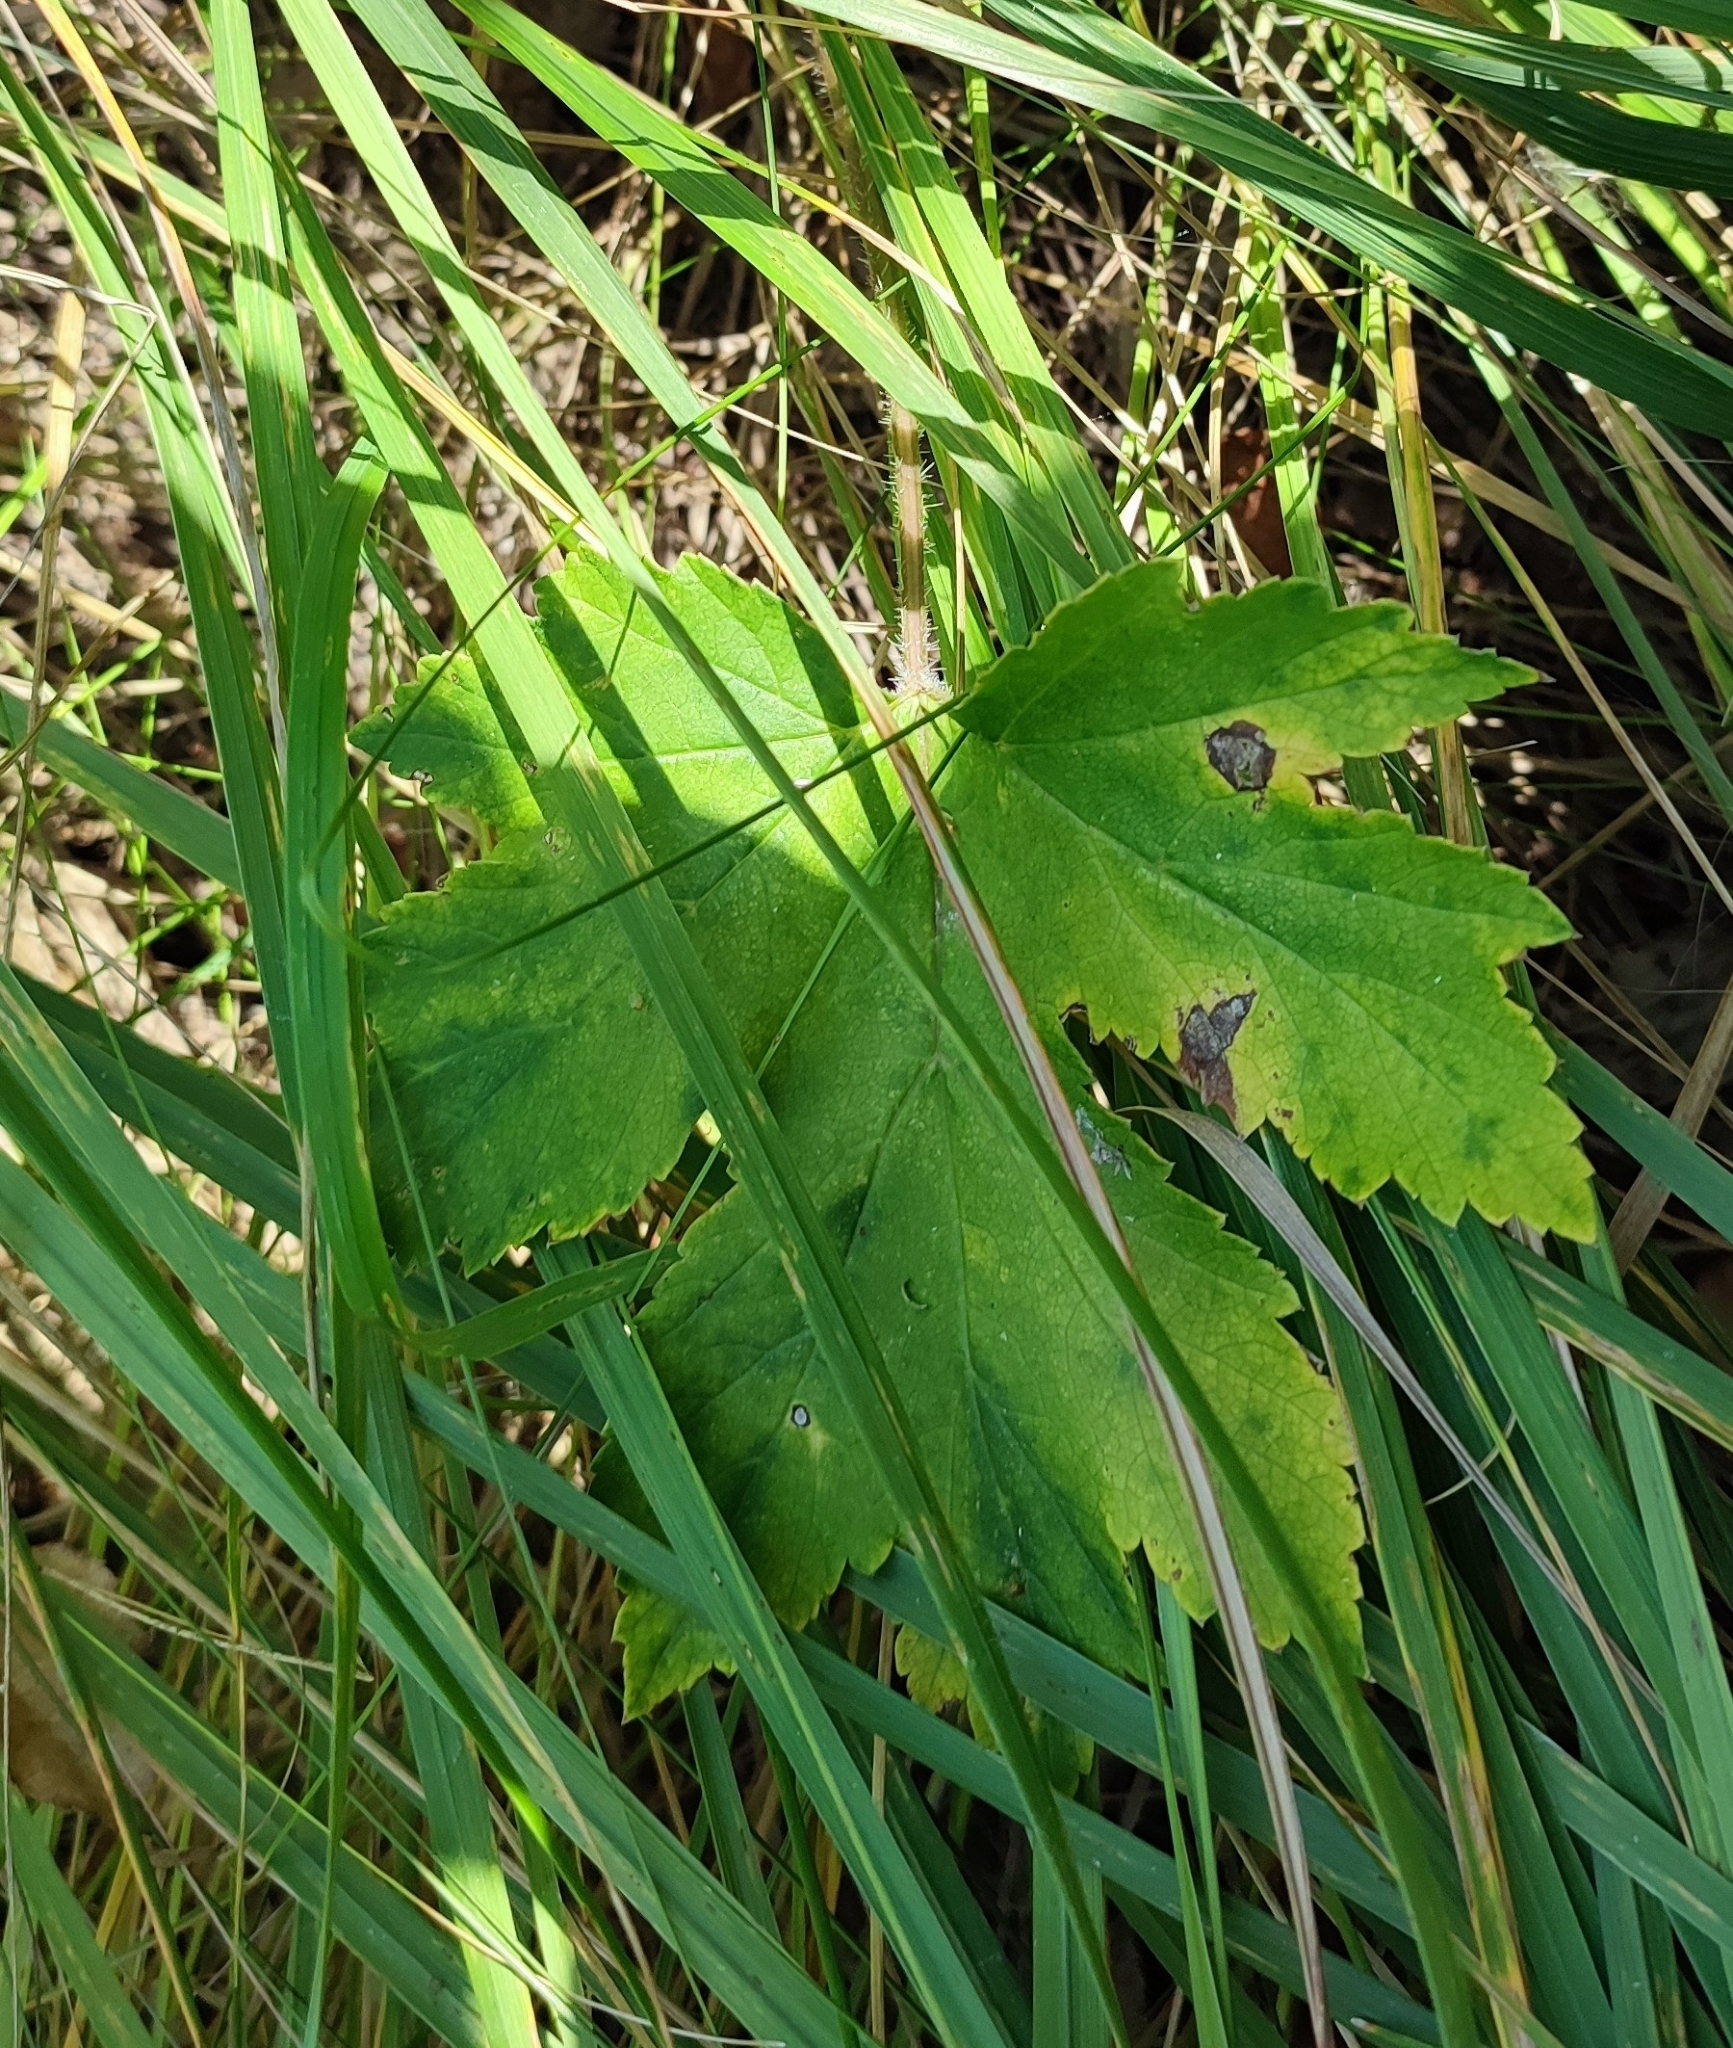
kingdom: Plantae
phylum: Tracheophyta
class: Magnoliopsida
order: Apiales
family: Apiaceae
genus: Heracleum
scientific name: Heracleum sphondylium
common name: Hogweed
